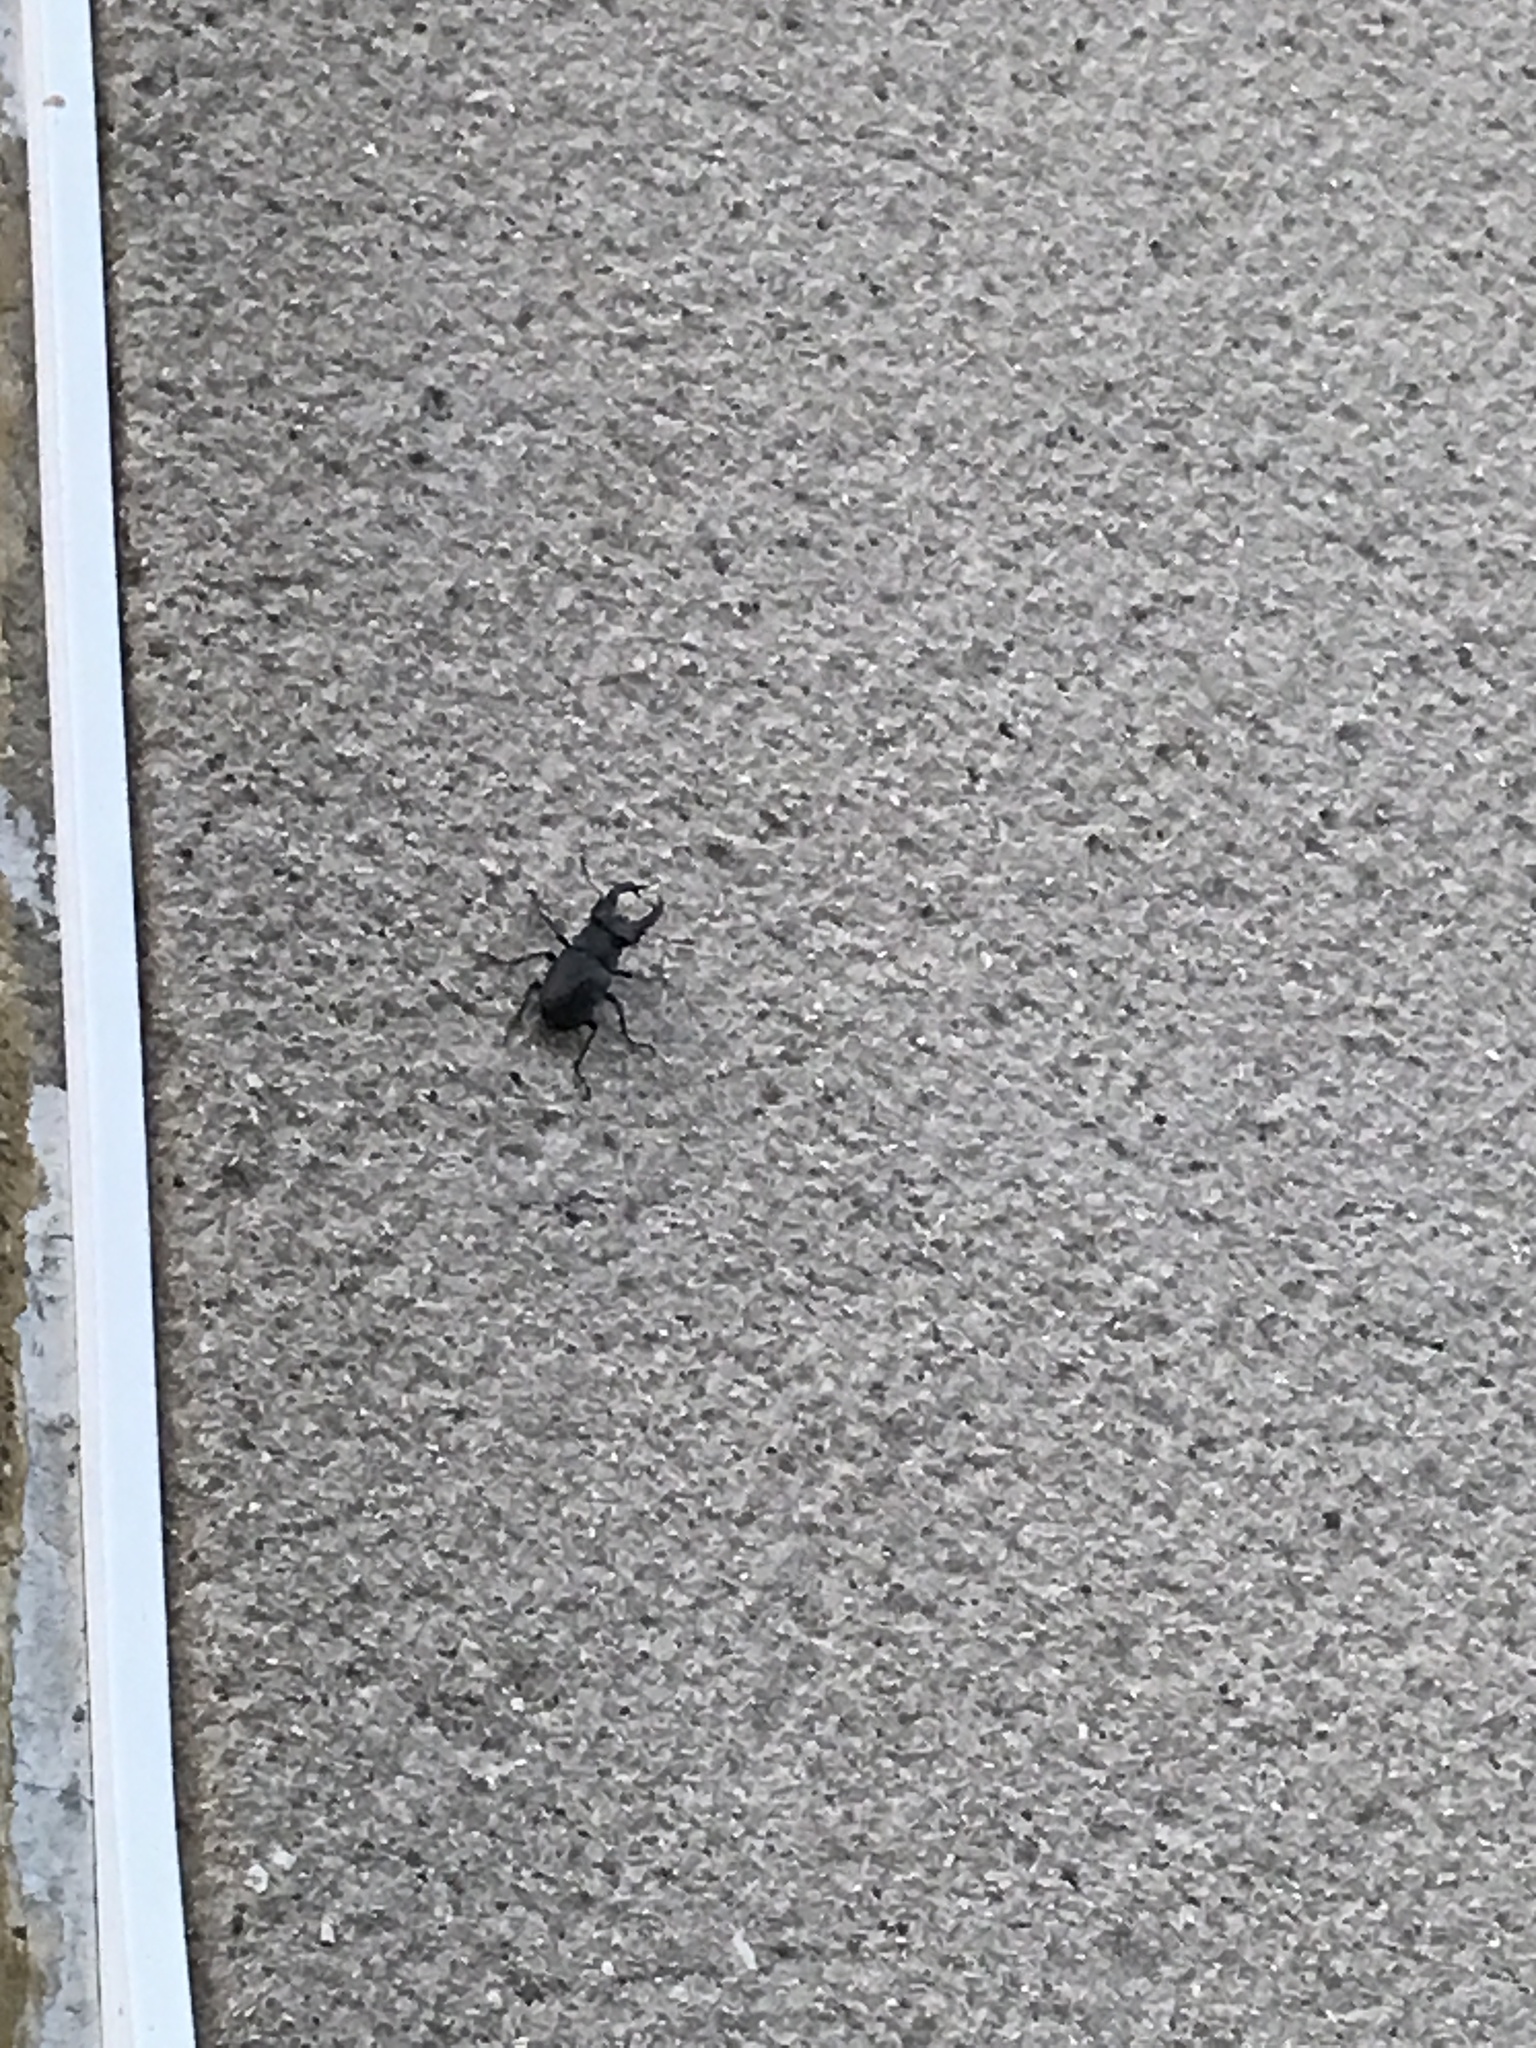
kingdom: Animalia
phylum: Arthropoda
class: Insecta
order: Coleoptera
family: Lucanidae
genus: Lucanus
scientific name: Lucanus cervus
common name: Stag beetle
